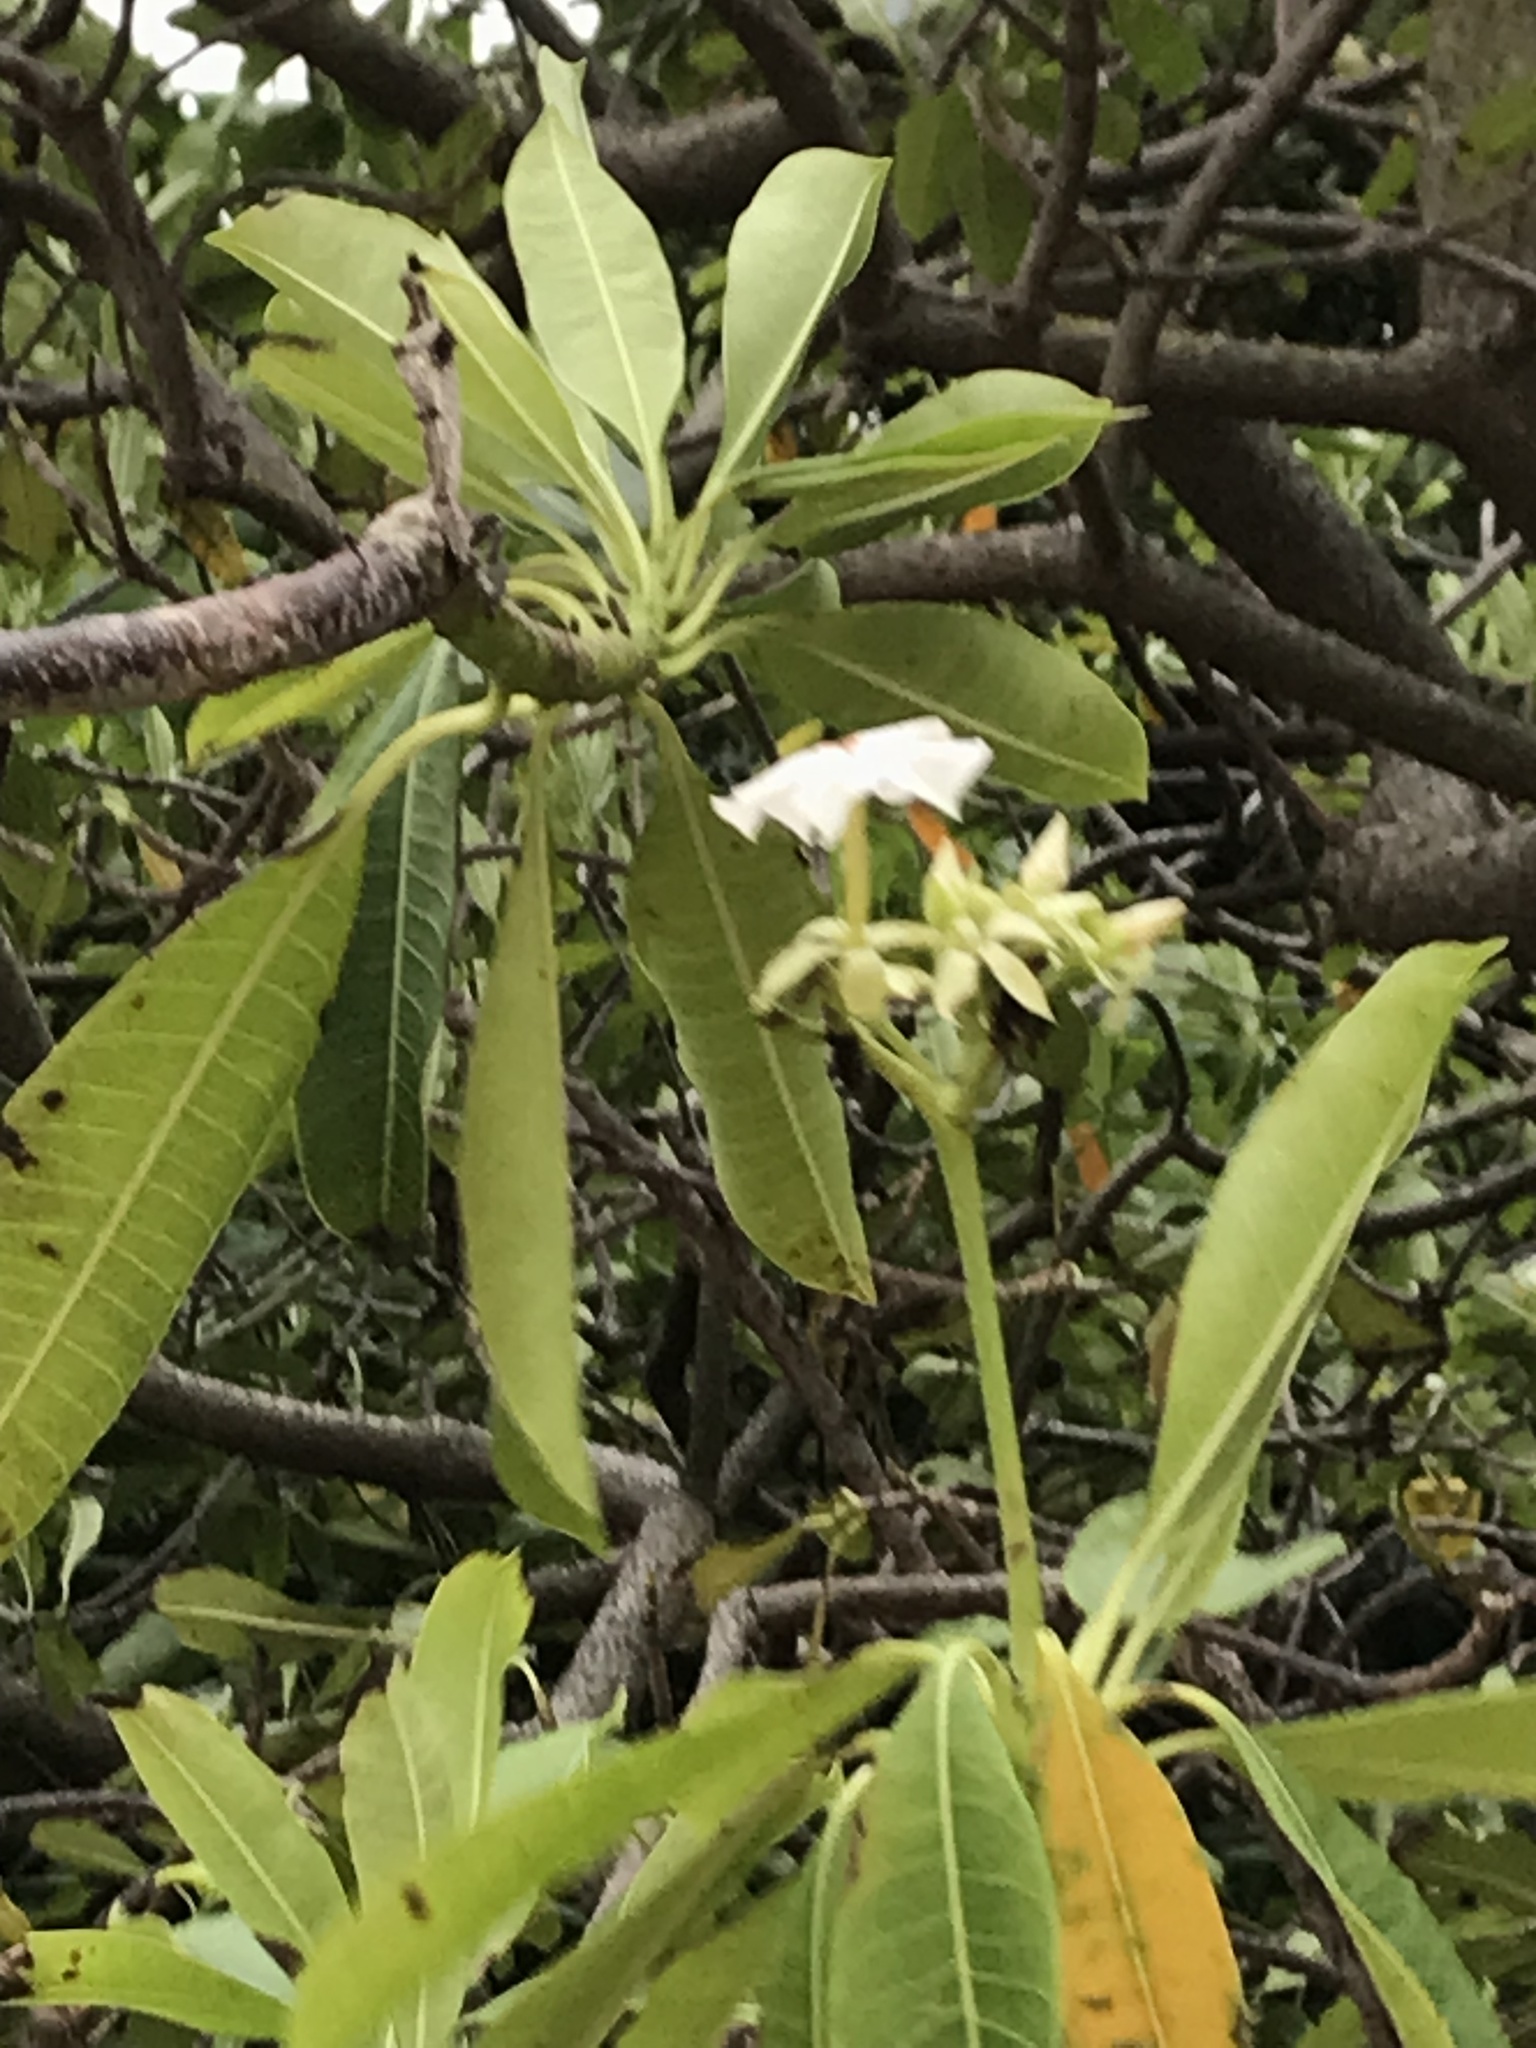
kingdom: Plantae
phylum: Tracheophyta
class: Magnoliopsida
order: Gentianales
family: Apocynaceae
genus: Cerbera
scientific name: Cerbera manghas
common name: Reva
